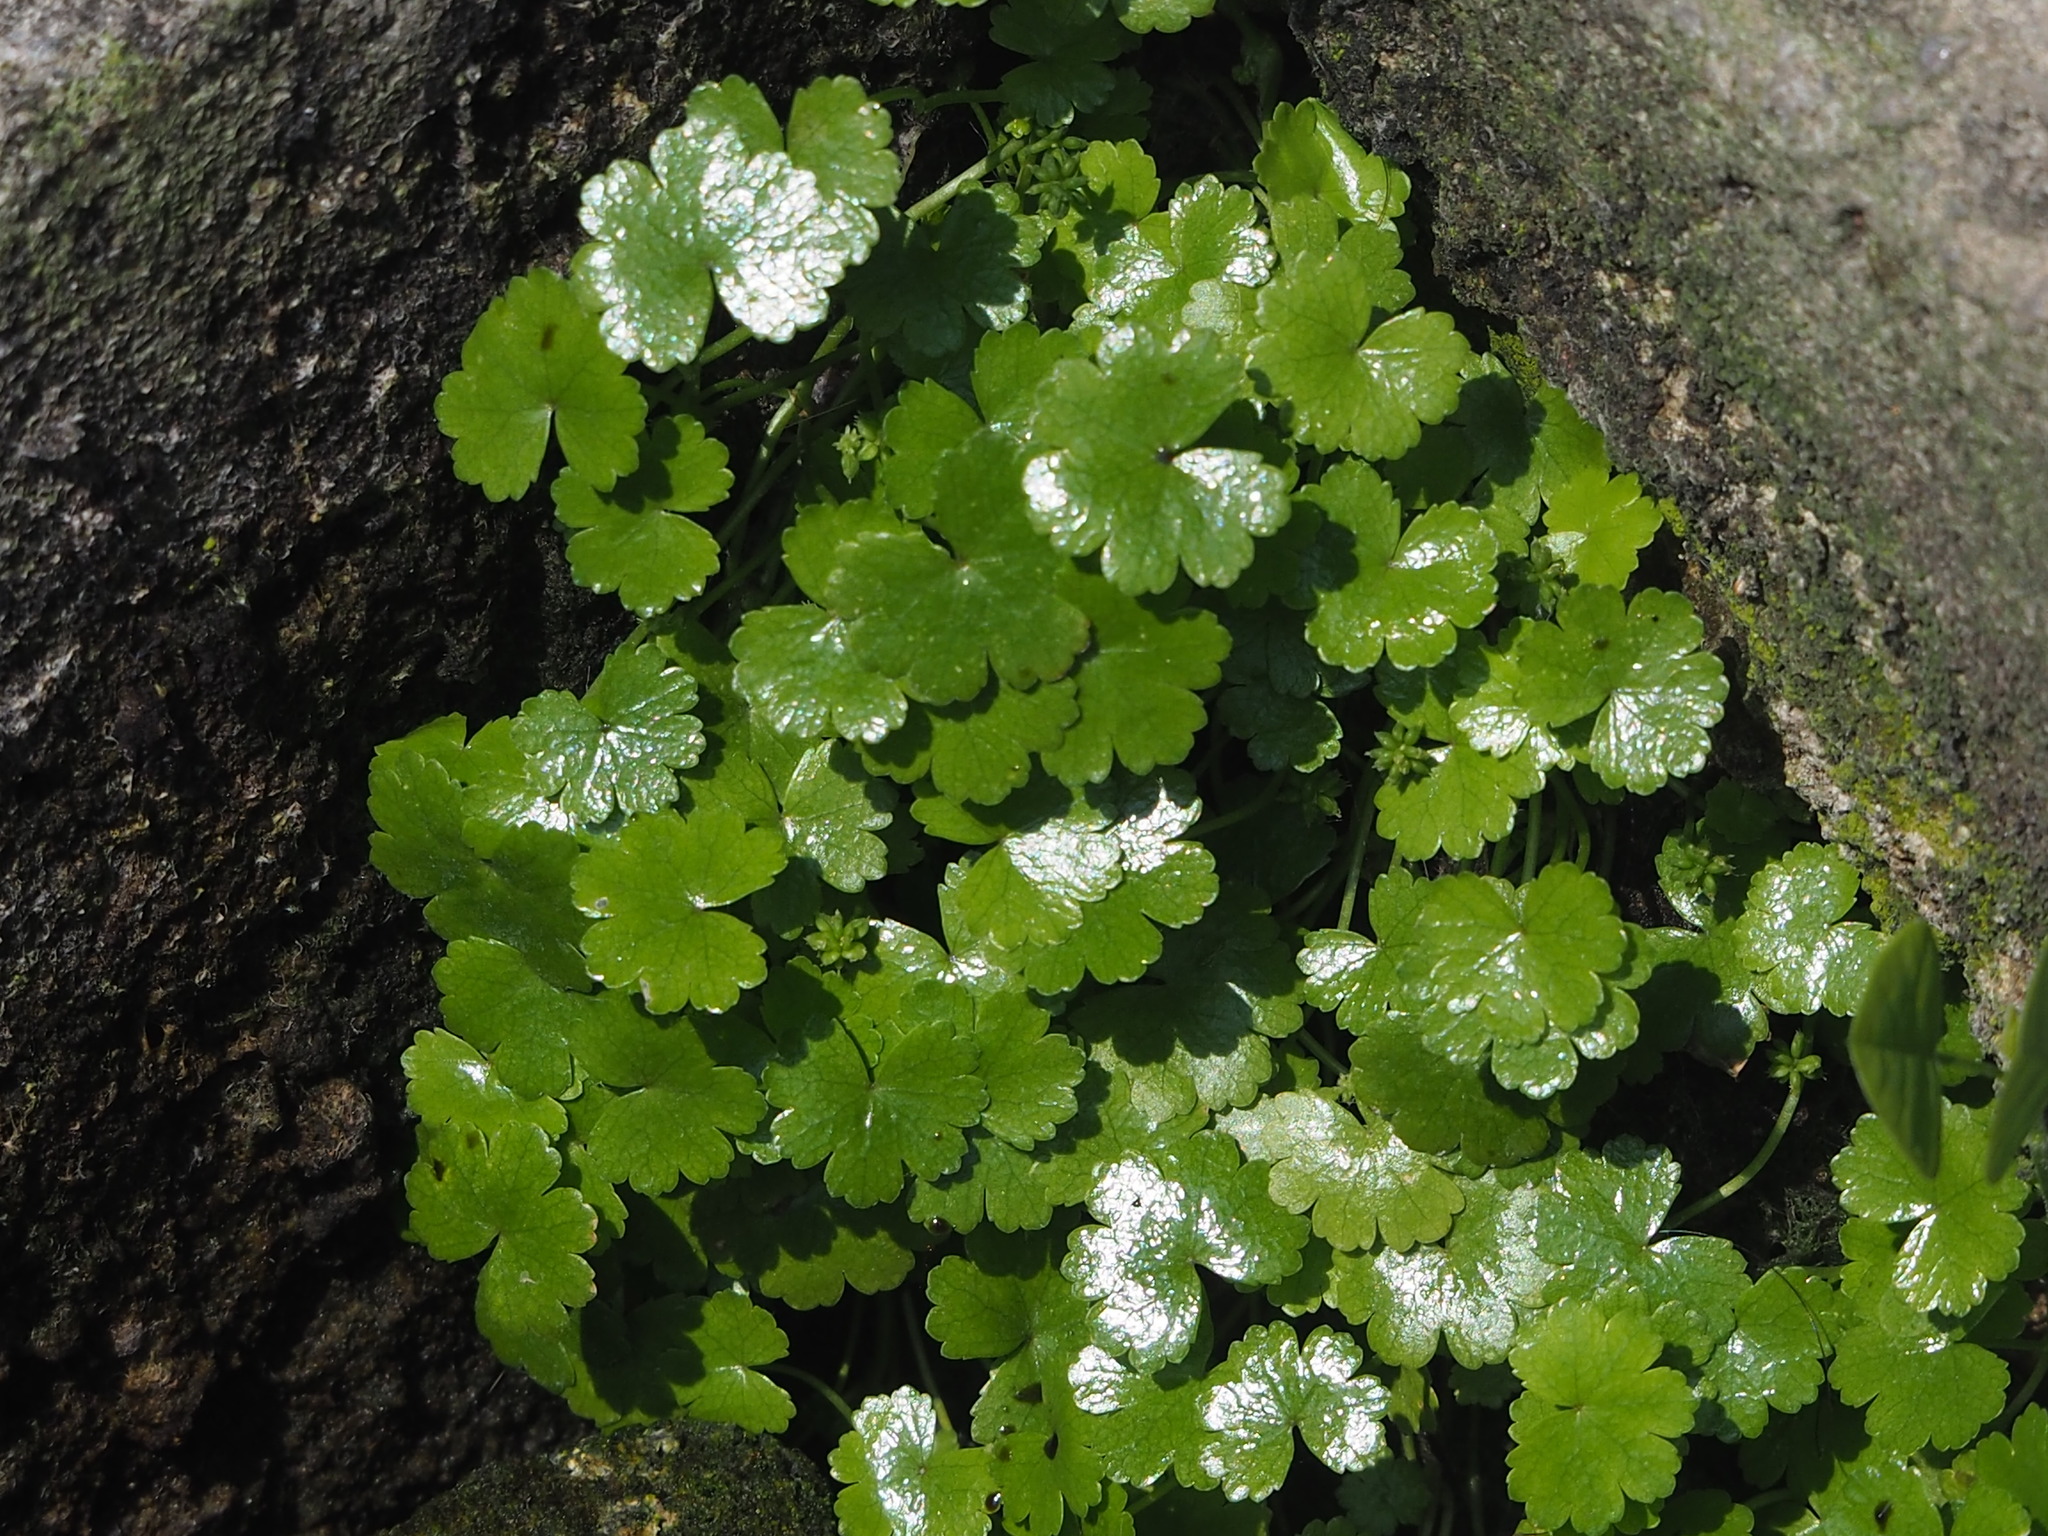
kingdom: Plantae
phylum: Tracheophyta
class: Magnoliopsida
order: Apiales
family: Araliaceae
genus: Hydrocotyle
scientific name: Hydrocotyle sibthorpioides
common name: Lawn marshpennywort
